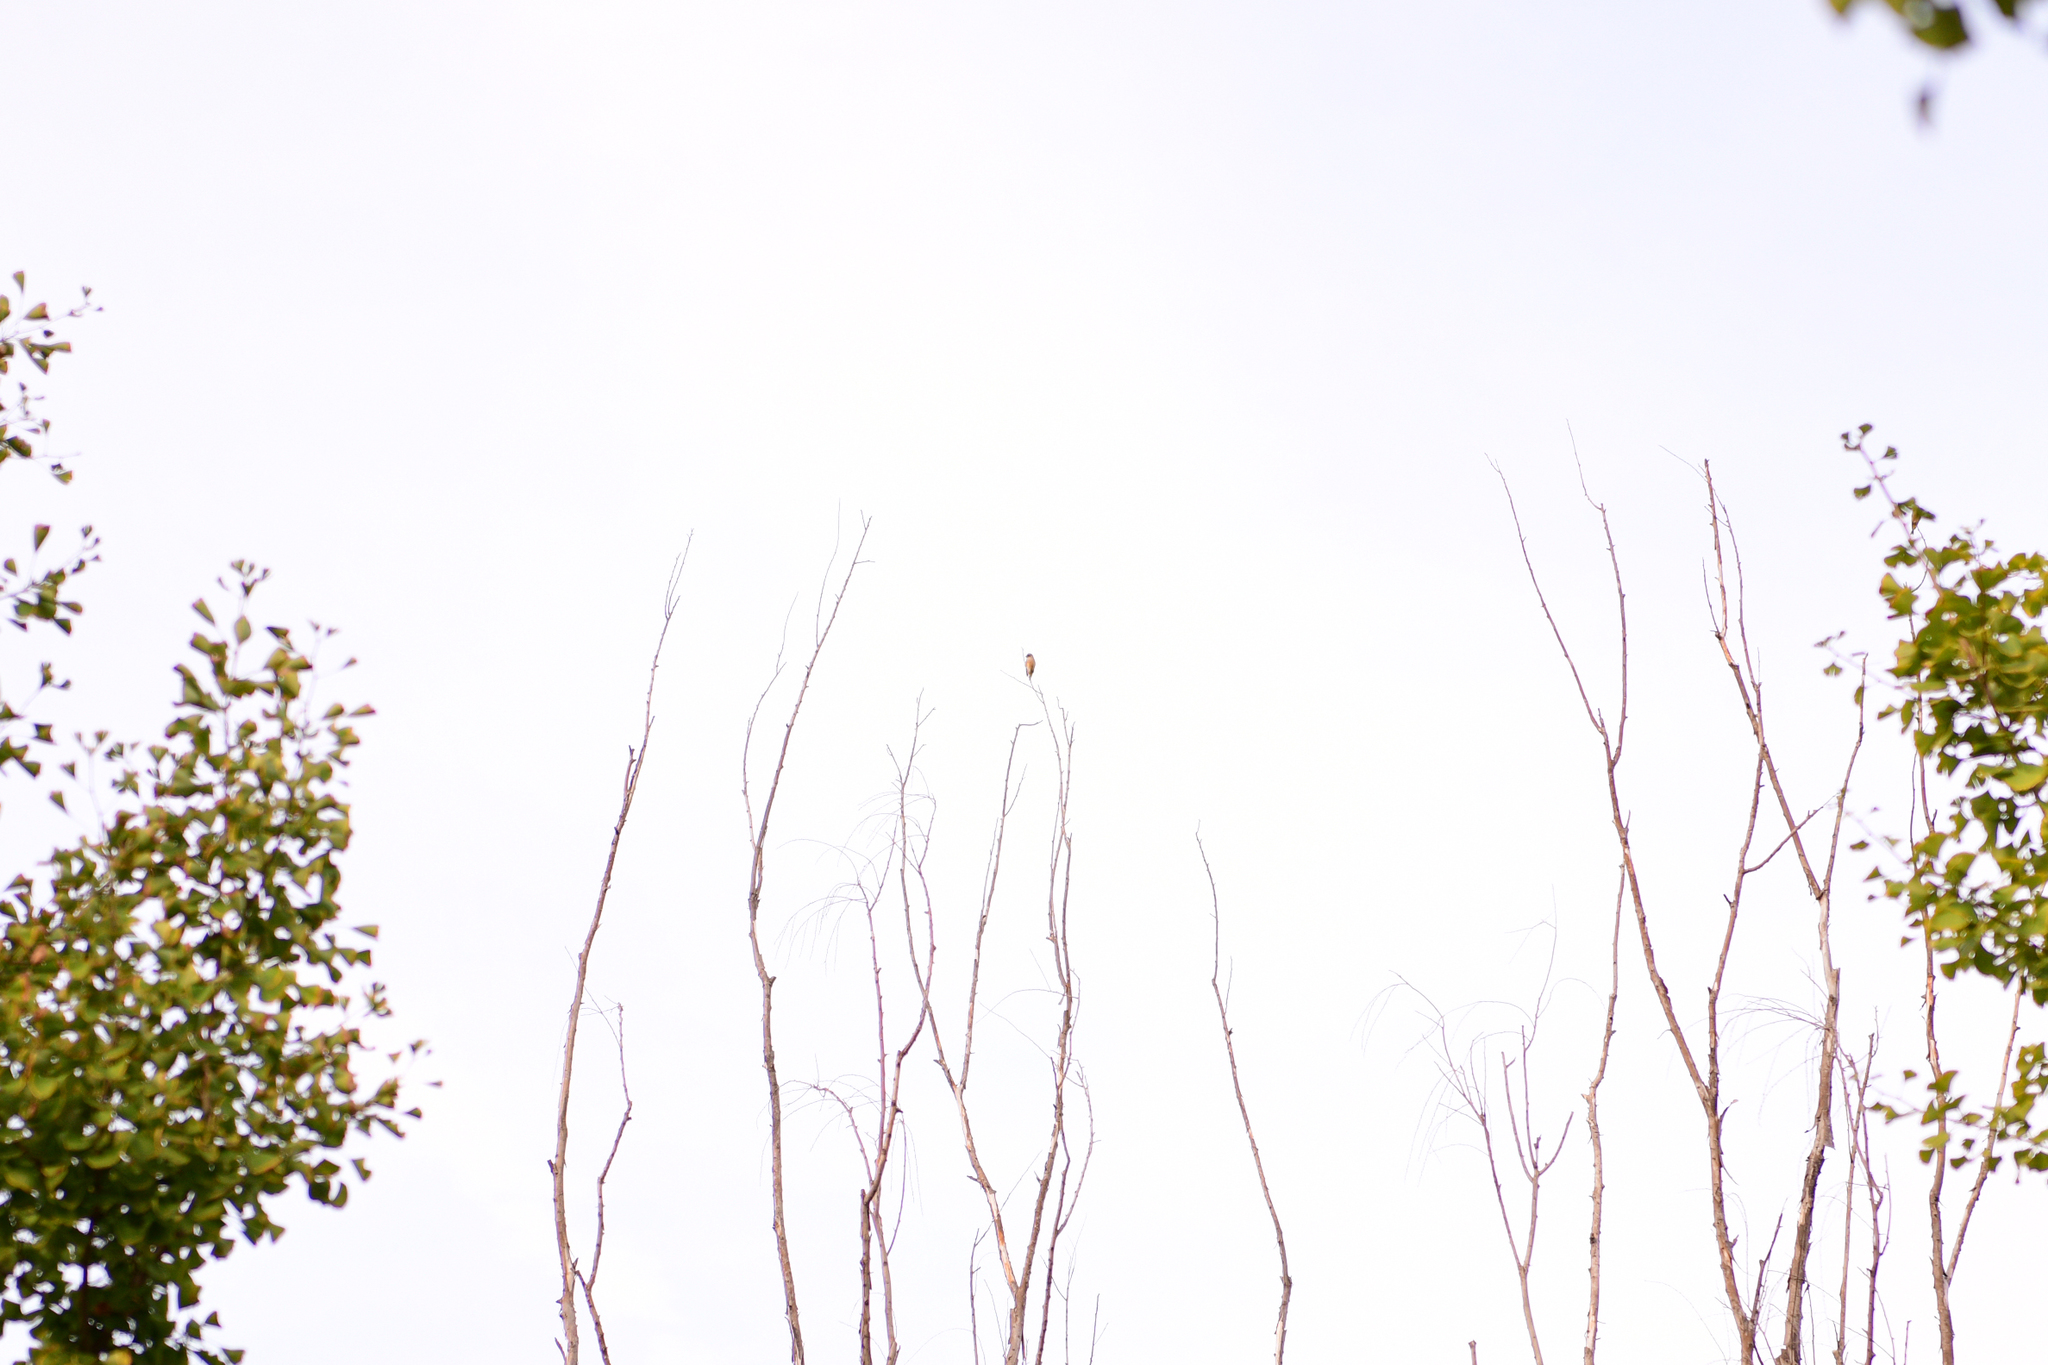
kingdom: Plantae
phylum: Tracheophyta
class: Liliopsida
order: Poales
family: Poaceae
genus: Chloris
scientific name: Chloris sinica
